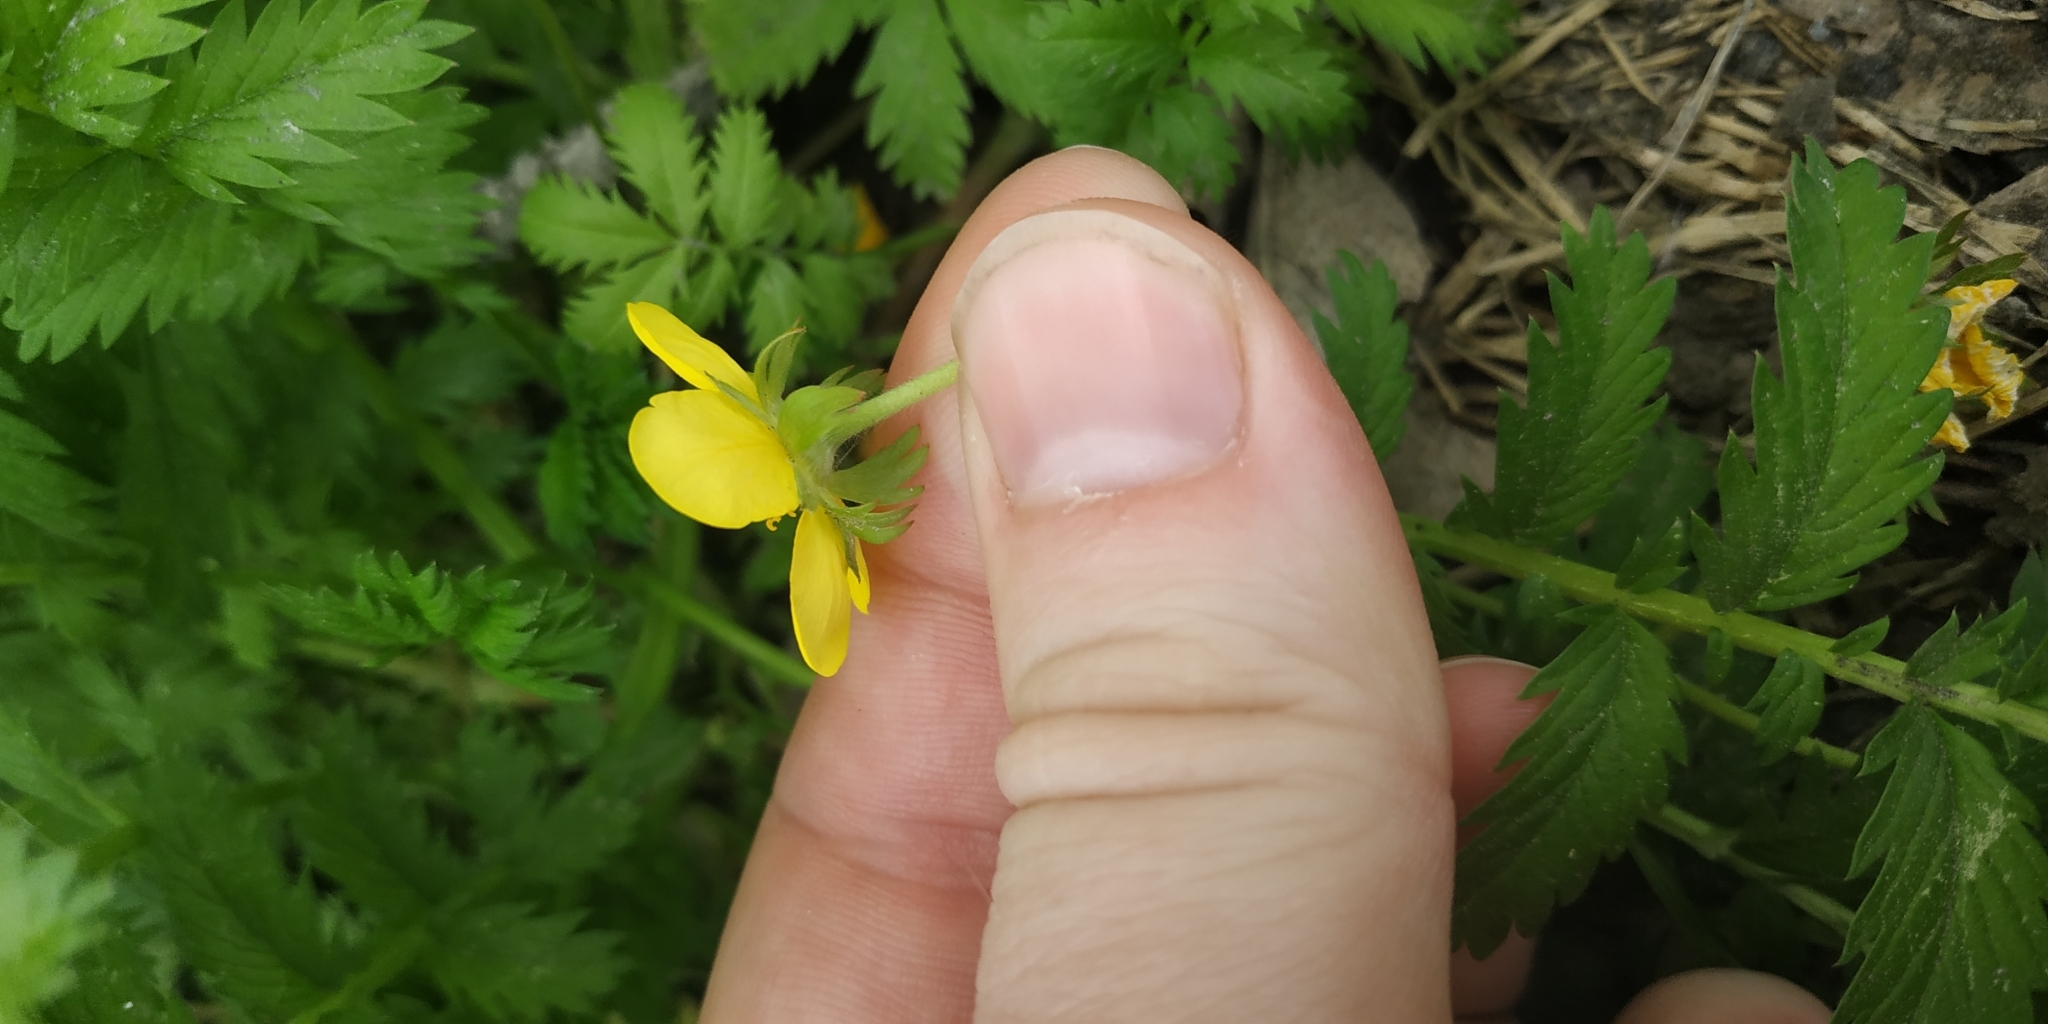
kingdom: Plantae
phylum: Tracheophyta
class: Magnoliopsida
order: Rosales
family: Rosaceae
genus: Argentina
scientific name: Argentina anserina
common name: Common silverweed
